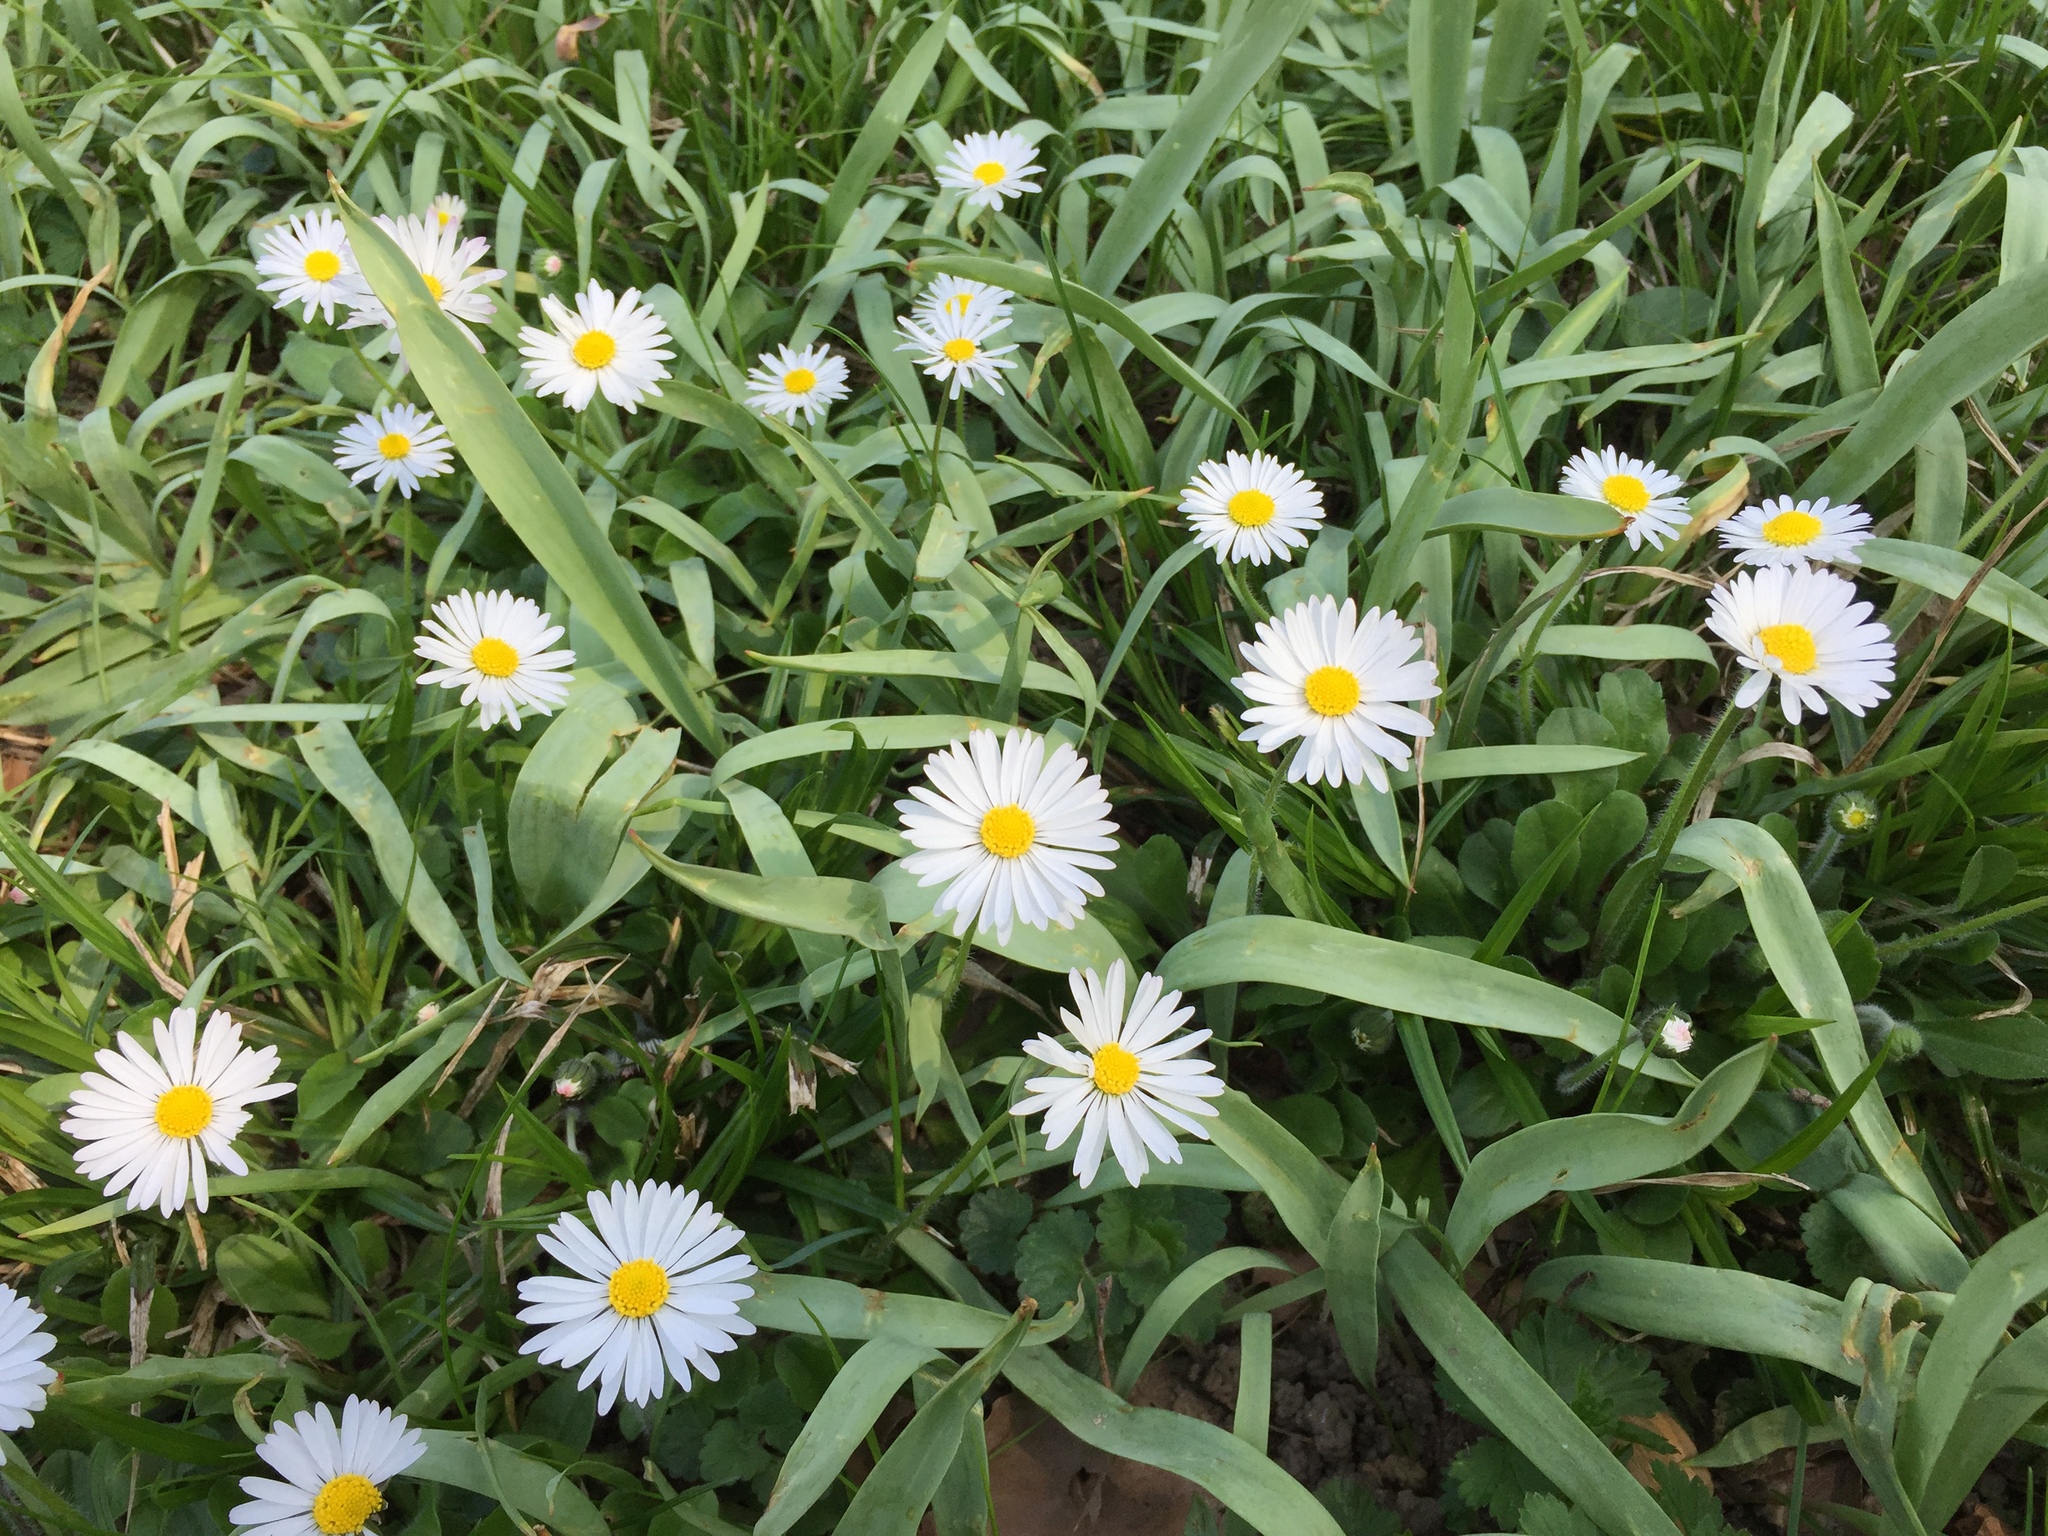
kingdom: Plantae
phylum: Tracheophyta
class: Magnoliopsida
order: Asterales
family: Asteraceae
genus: Bellis
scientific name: Bellis perennis
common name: Lawndaisy
